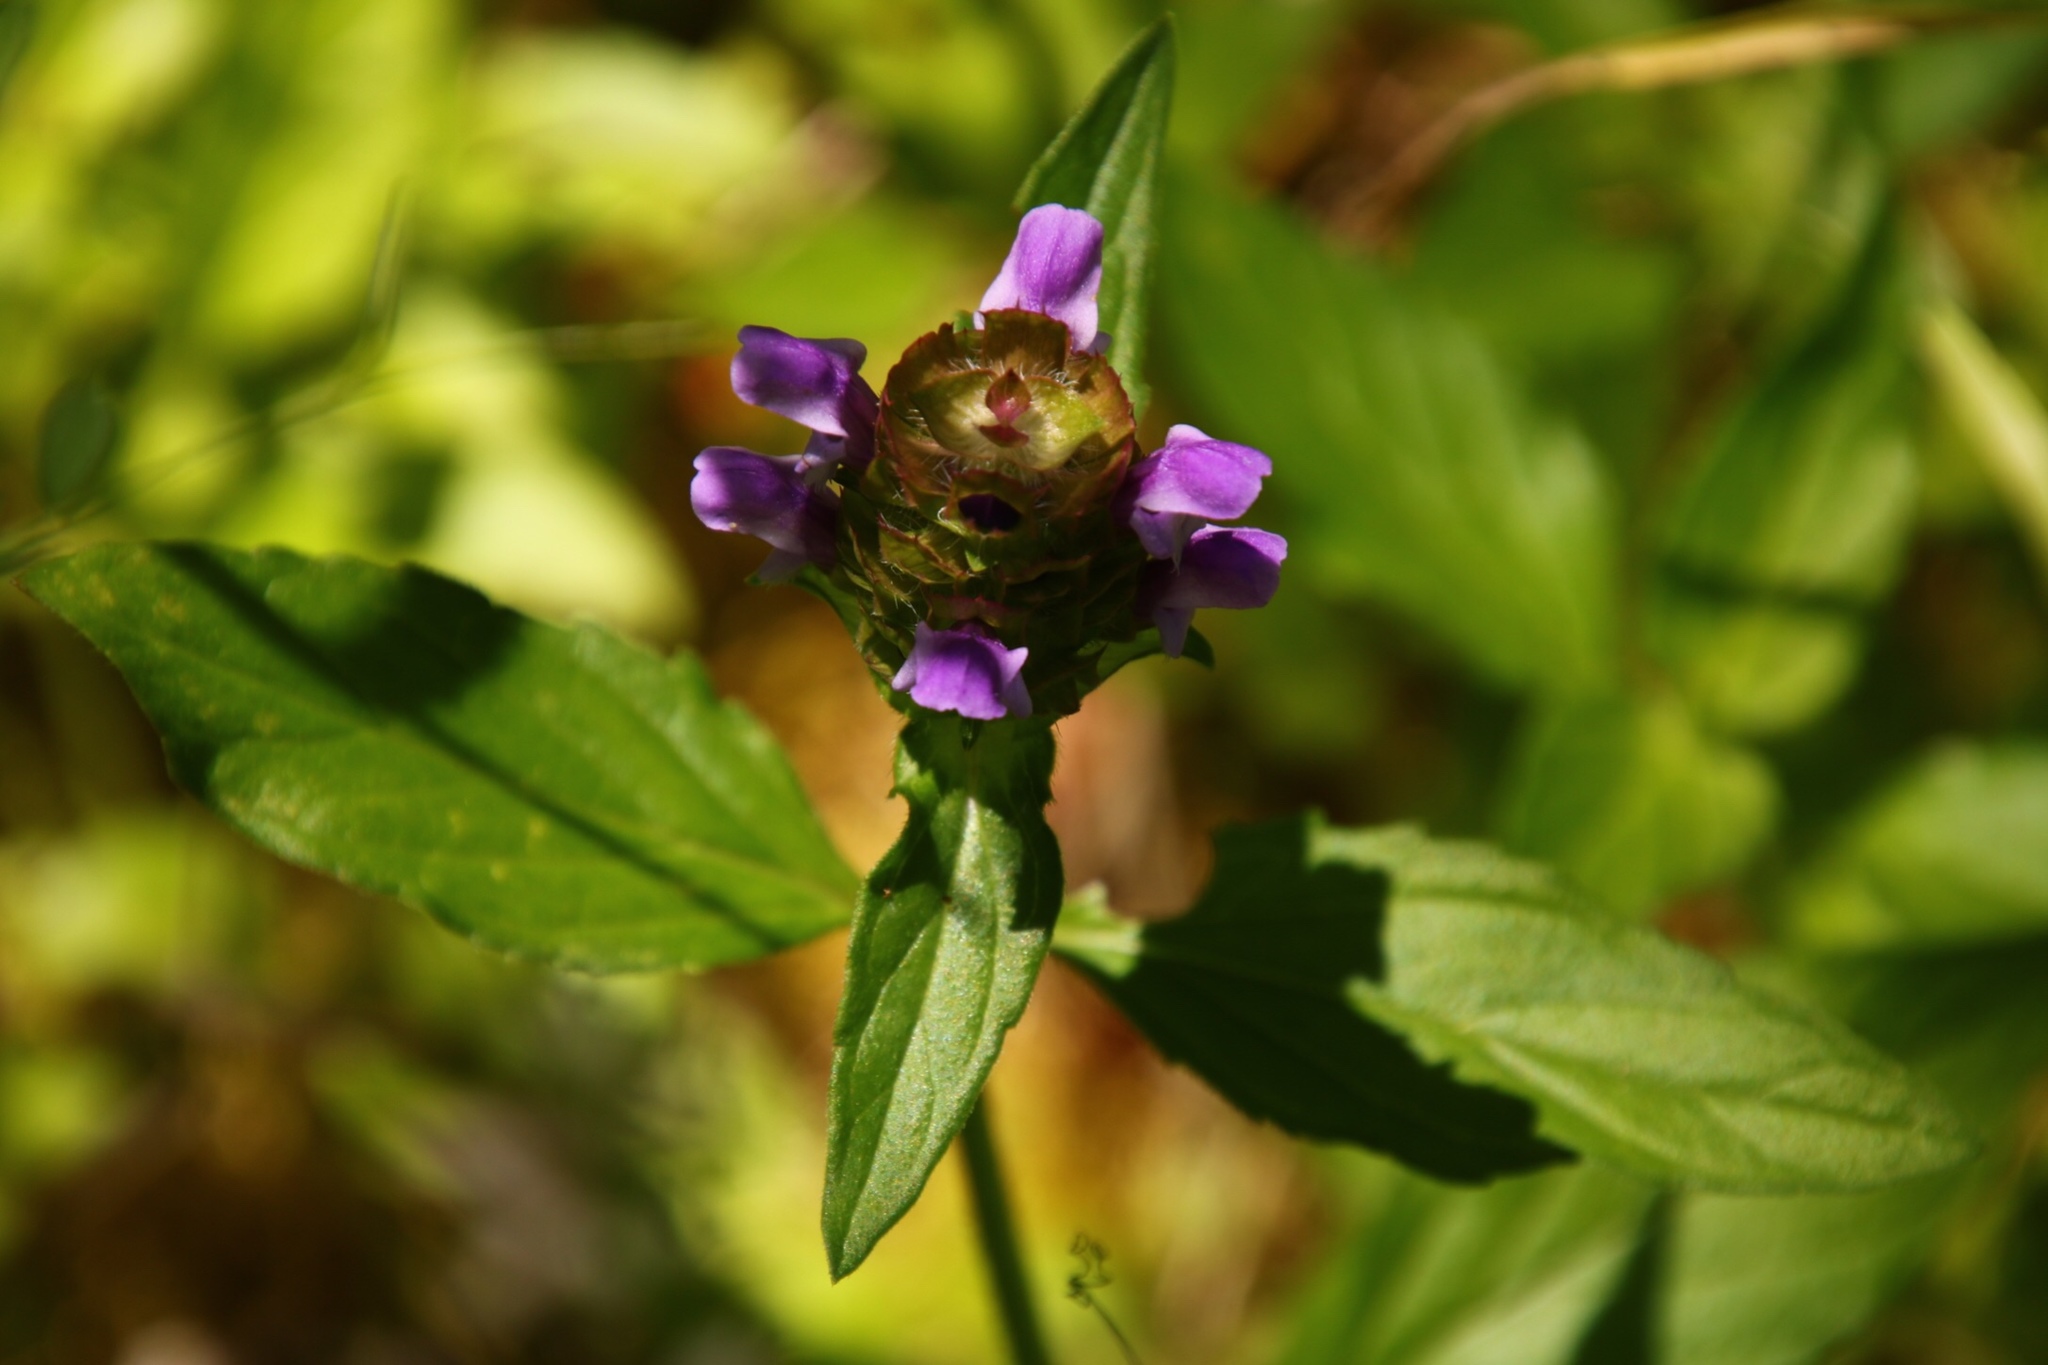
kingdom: Plantae
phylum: Tracheophyta
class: Magnoliopsida
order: Lamiales
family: Lamiaceae
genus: Prunella
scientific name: Prunella vulgaris
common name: Heal-all
